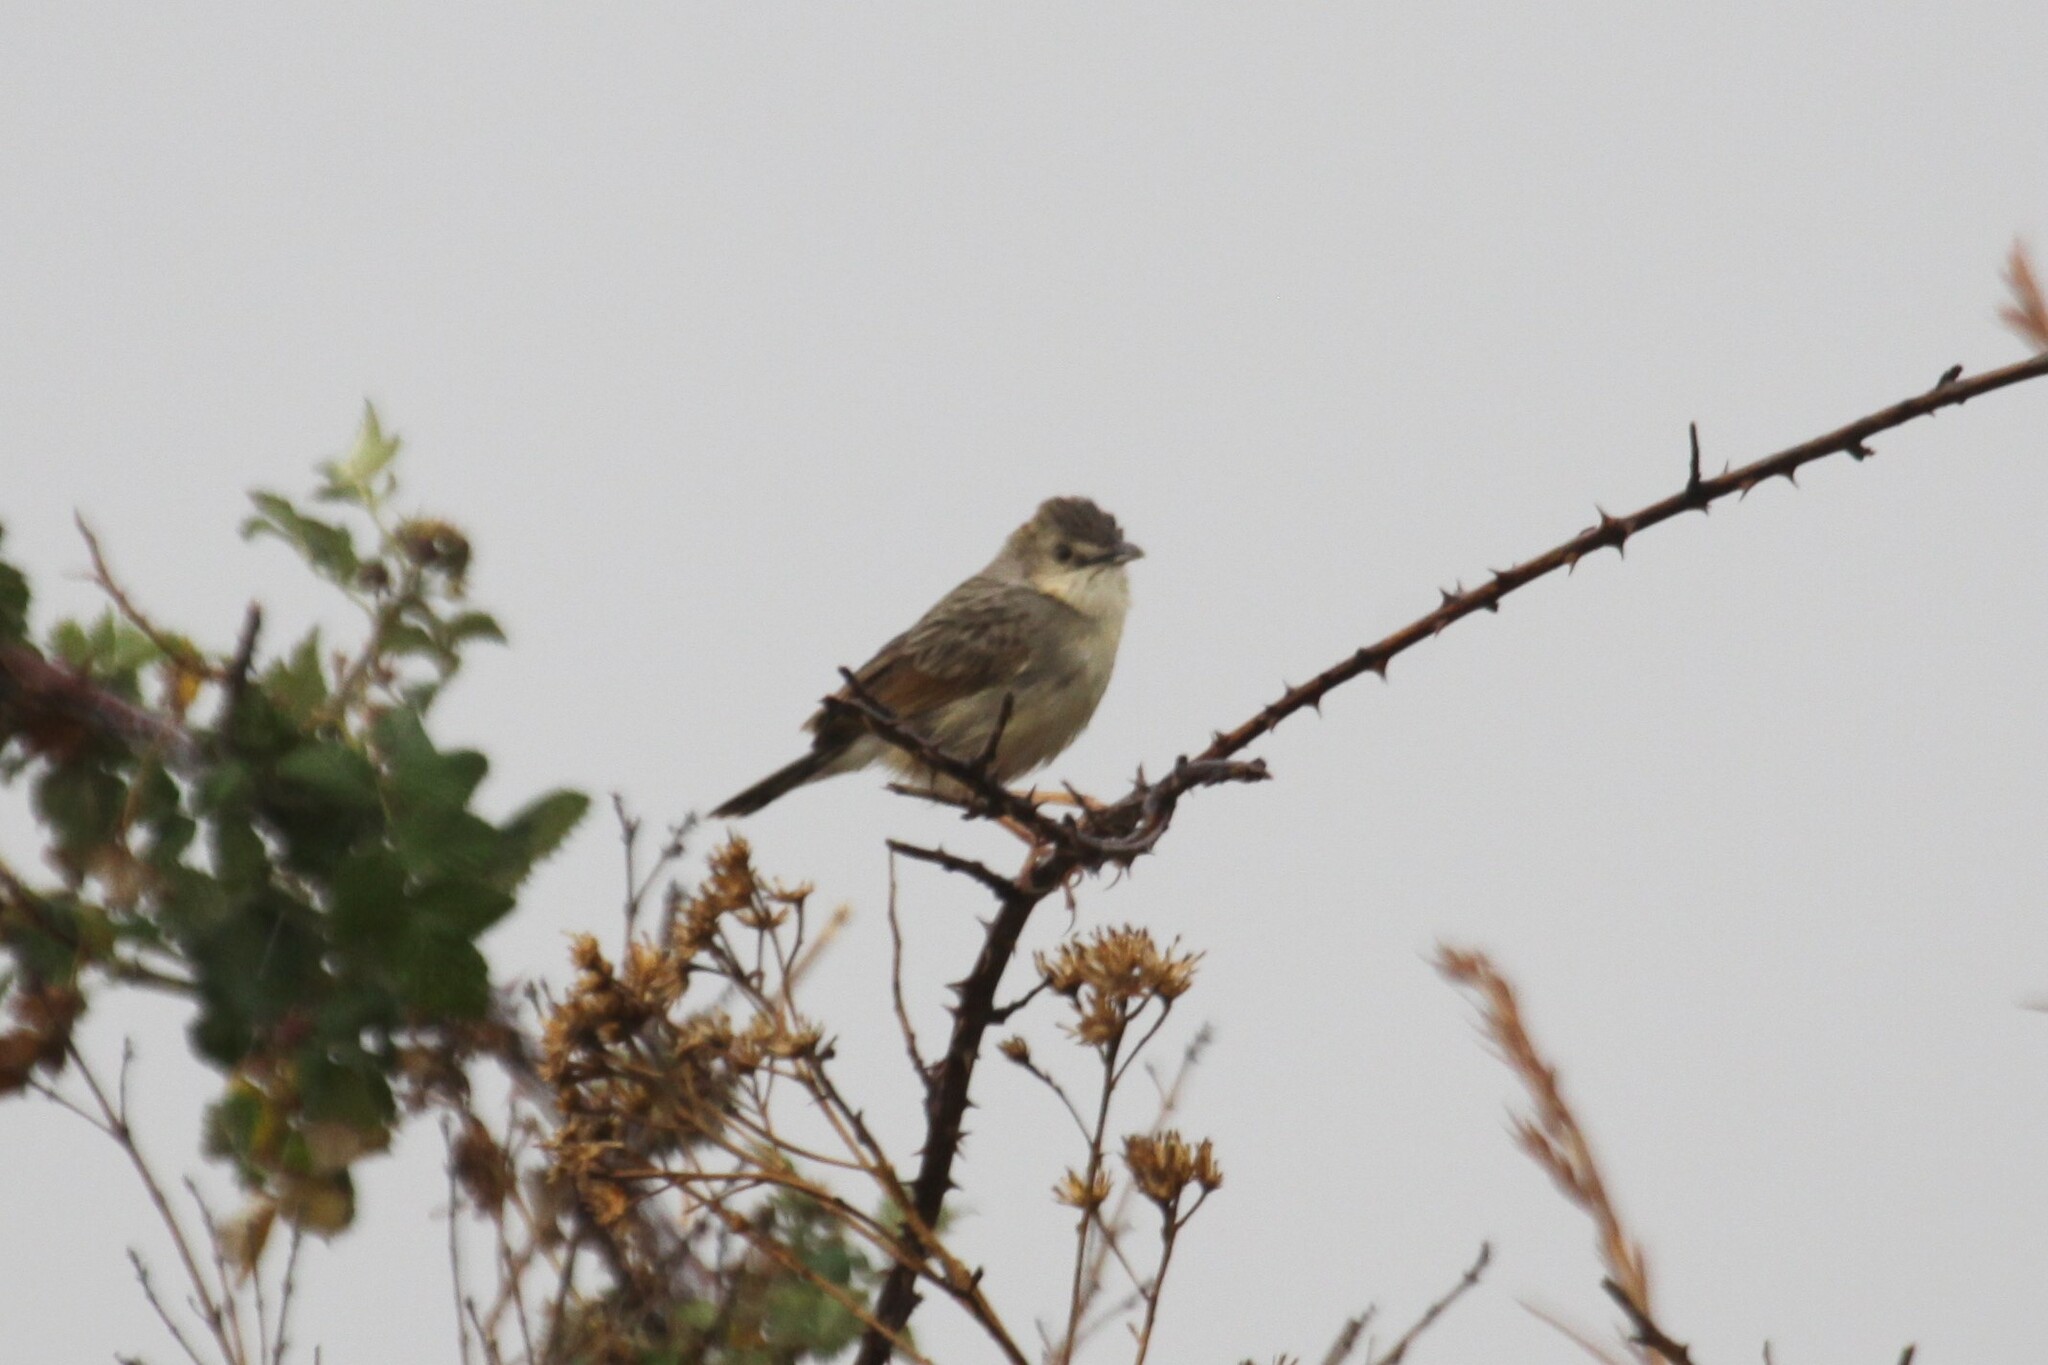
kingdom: Animalia
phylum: Chordata
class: Aves
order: Passeriformes
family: Cisticolidae
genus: Cisticola
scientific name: Cisticola natalensis
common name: Croaking cisticola
